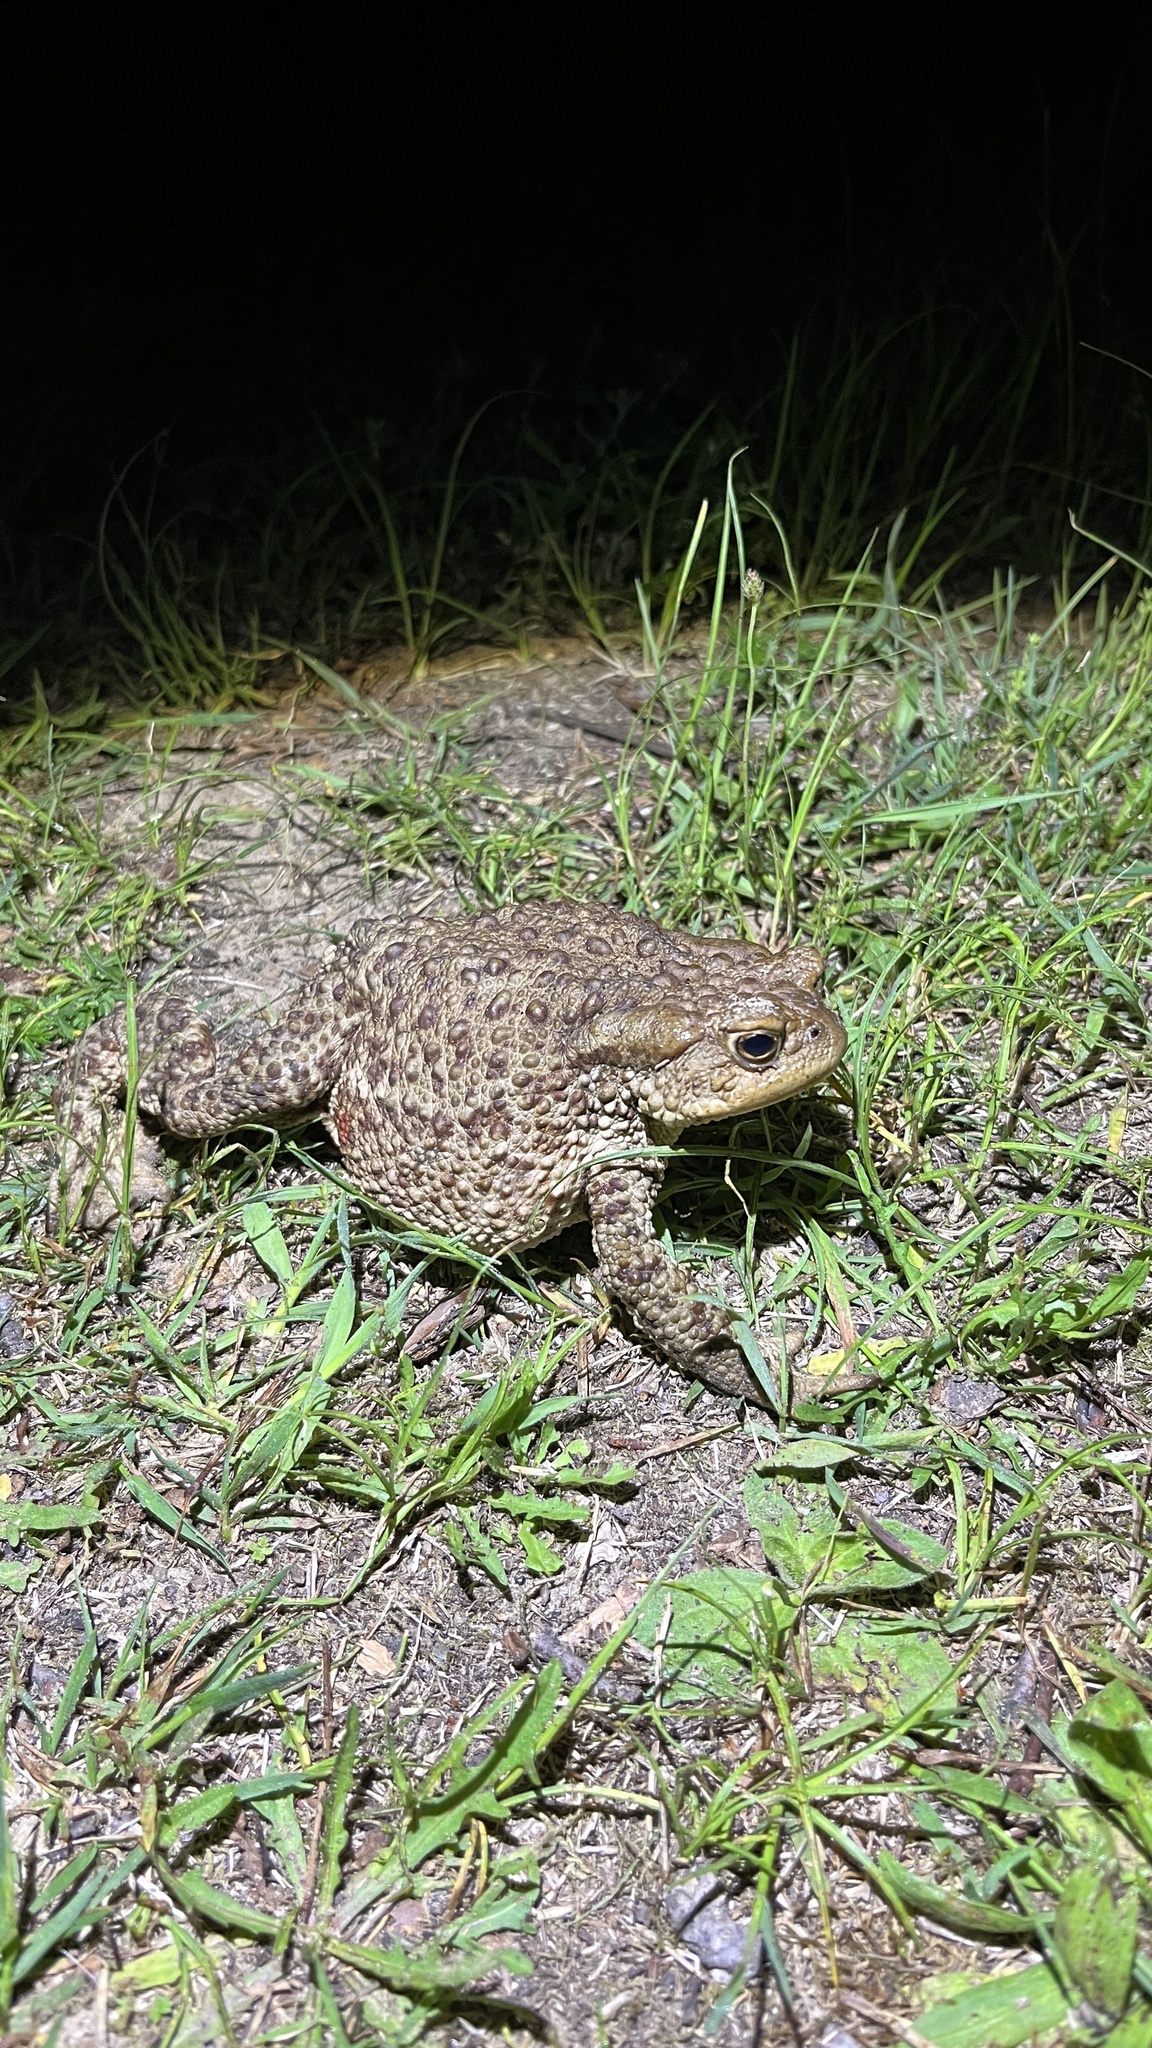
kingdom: Animalia
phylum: Chordata
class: Amphibia
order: Anura
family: Bufonidae
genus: Bufo
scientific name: Bufo bufo
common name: Common toad
